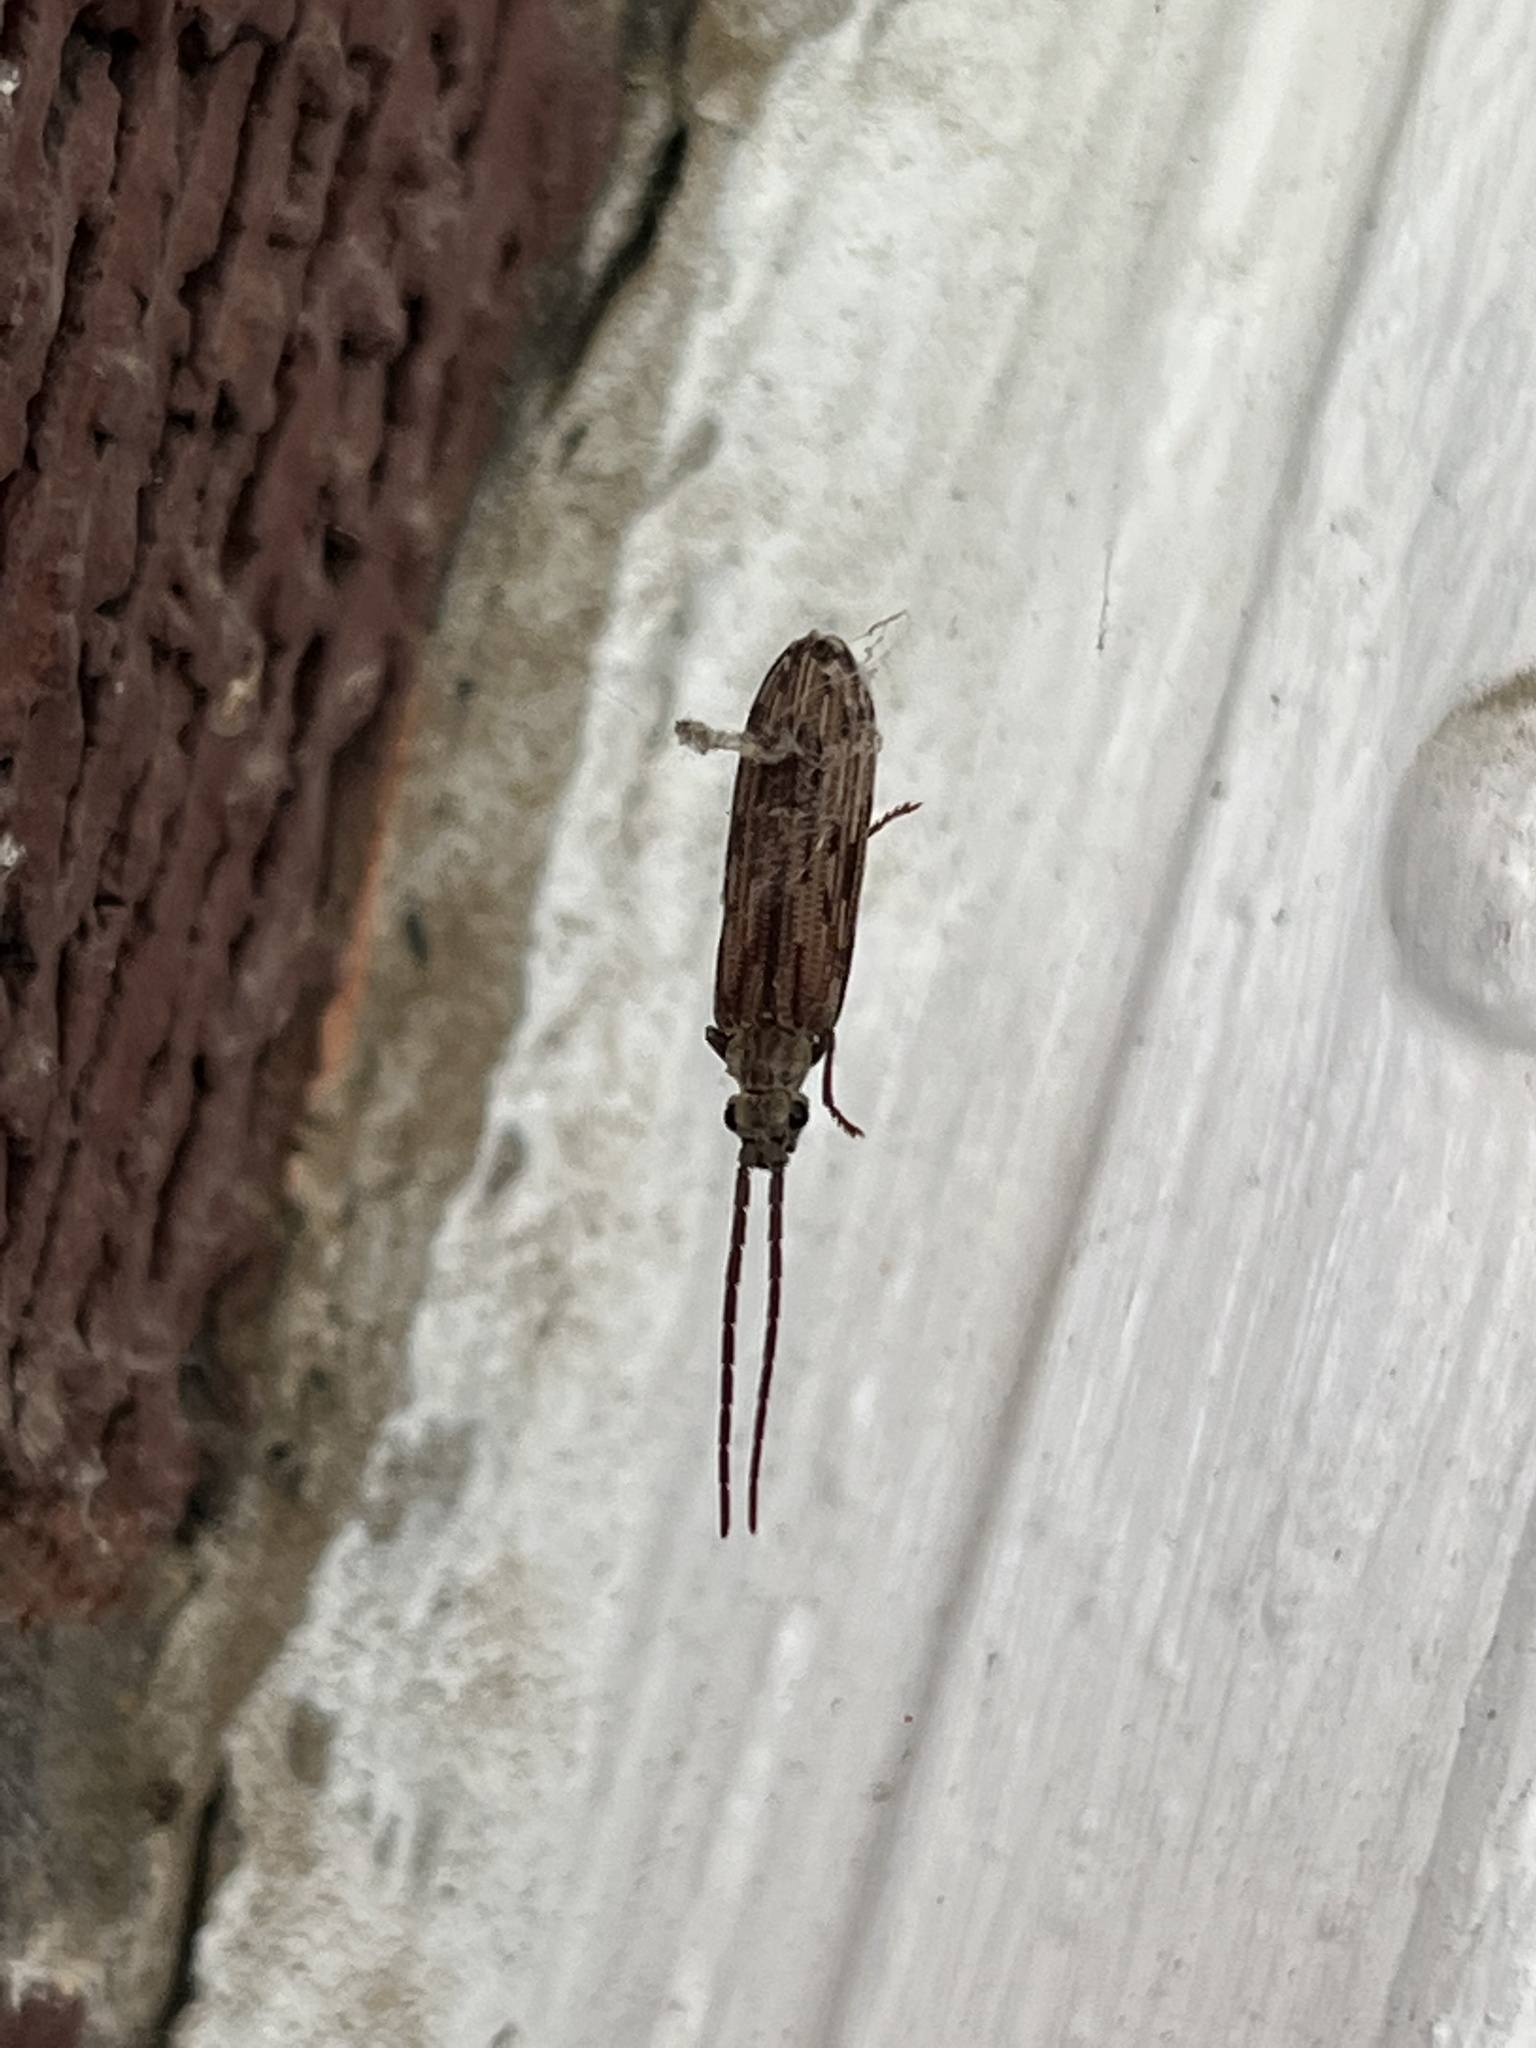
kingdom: Animalia
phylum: Arthropoda
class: Insecta
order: Coleoptera
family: Cupedidae
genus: Tenomerga
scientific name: Tenomerga cinerea
